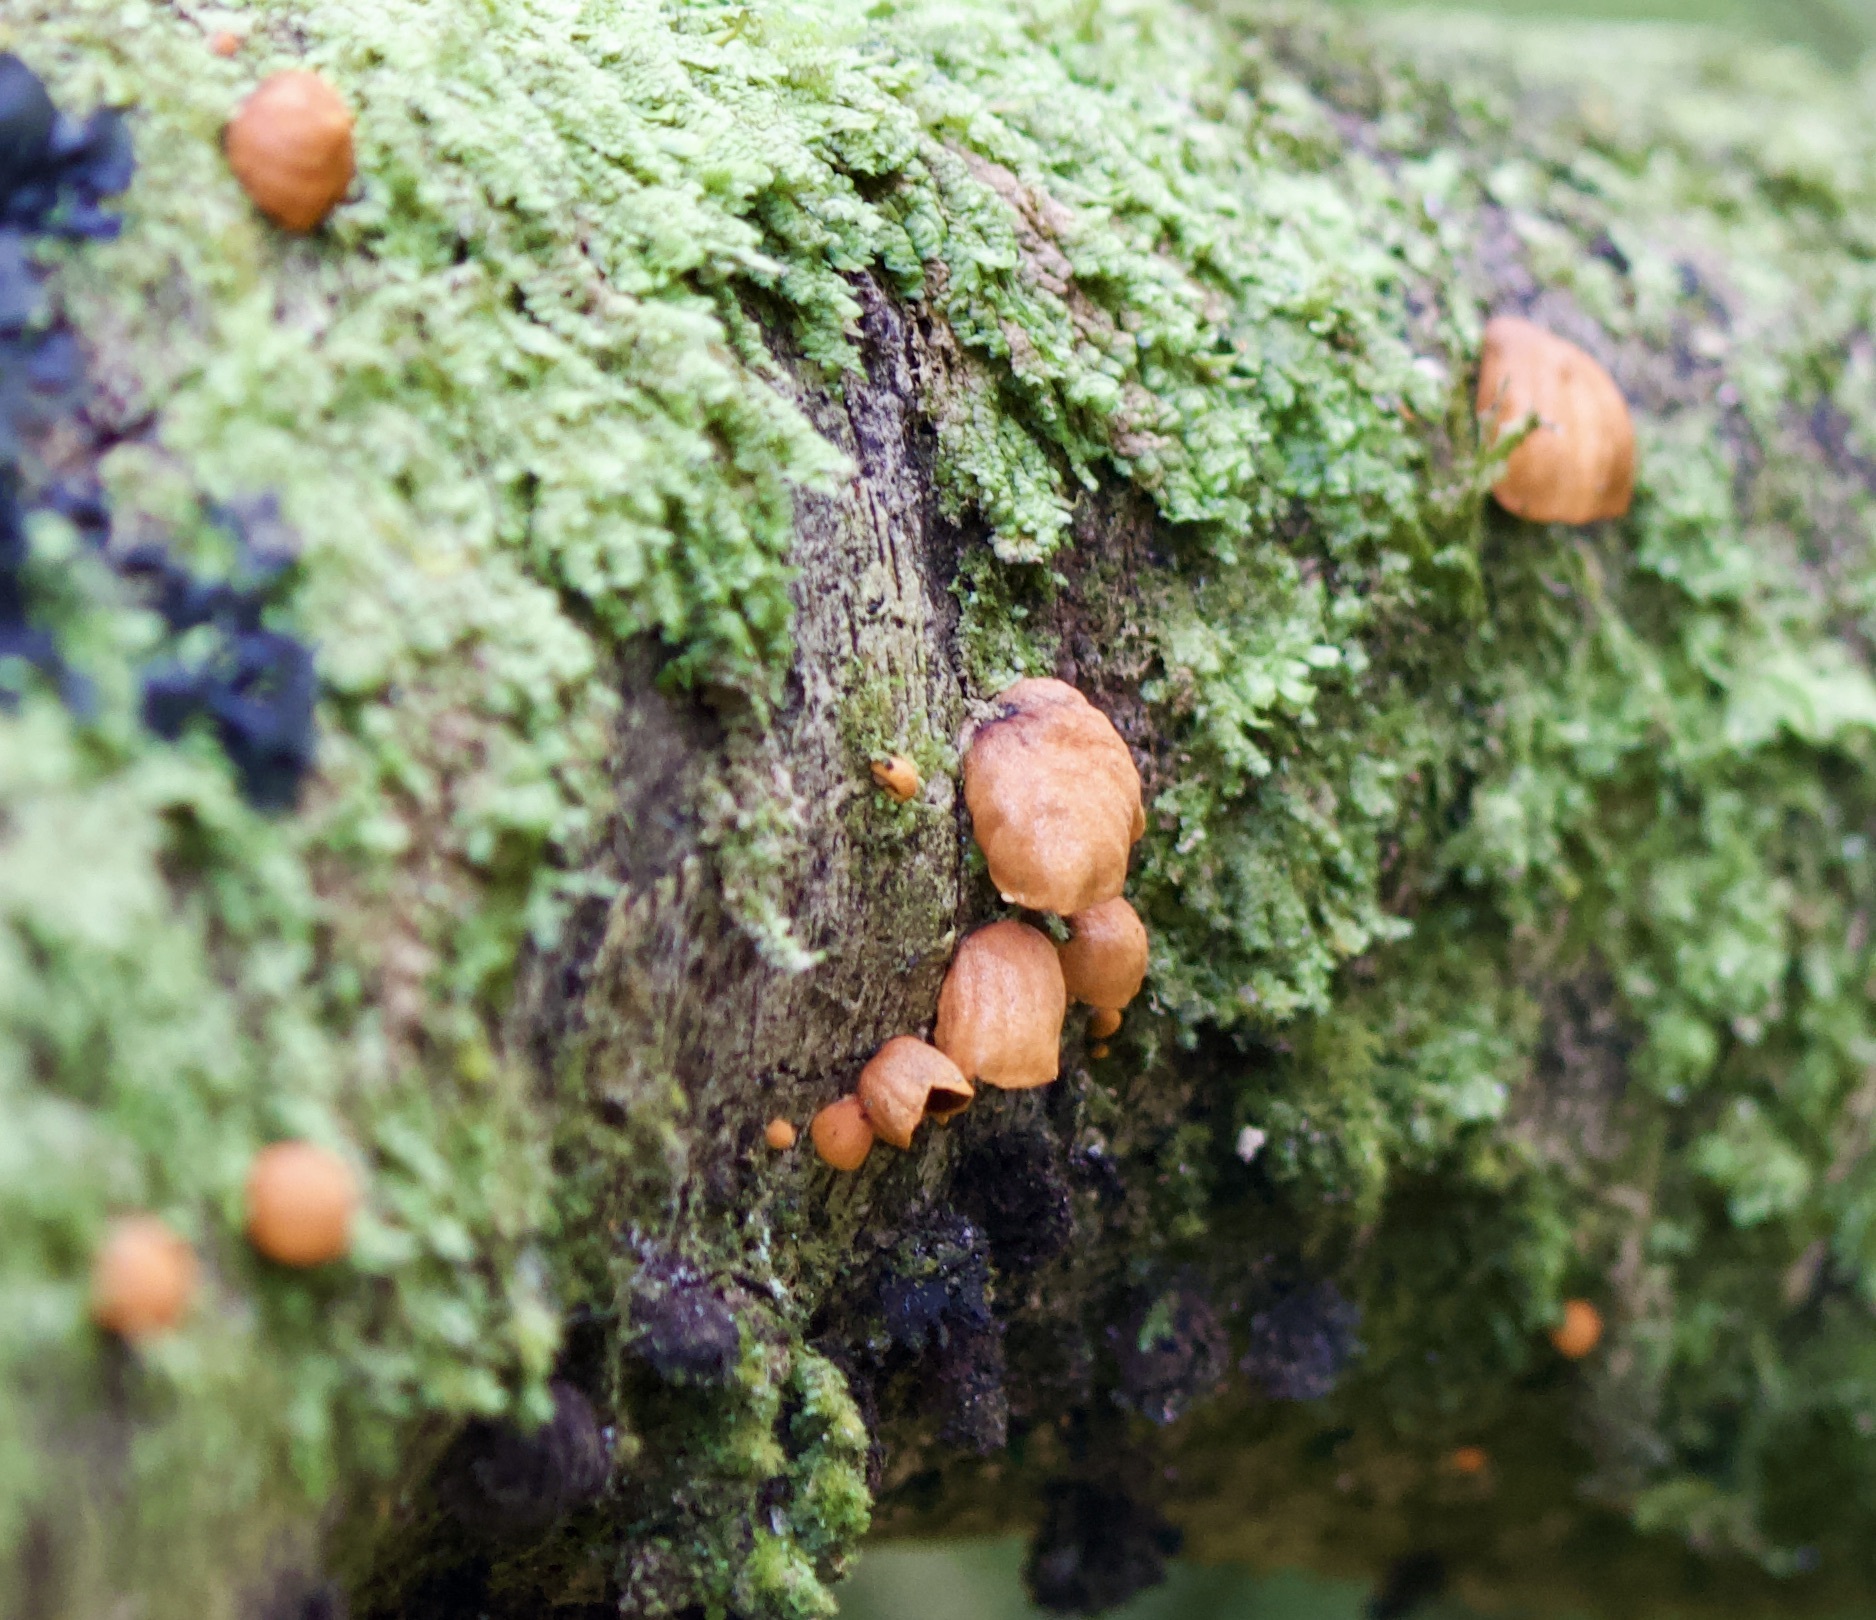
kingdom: Fungi
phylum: Basidiomycota
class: Agaricomycetes
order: Agaricales
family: Omphalotaceae
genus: Anthracophyllum
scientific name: Anthracophyllum discolor
